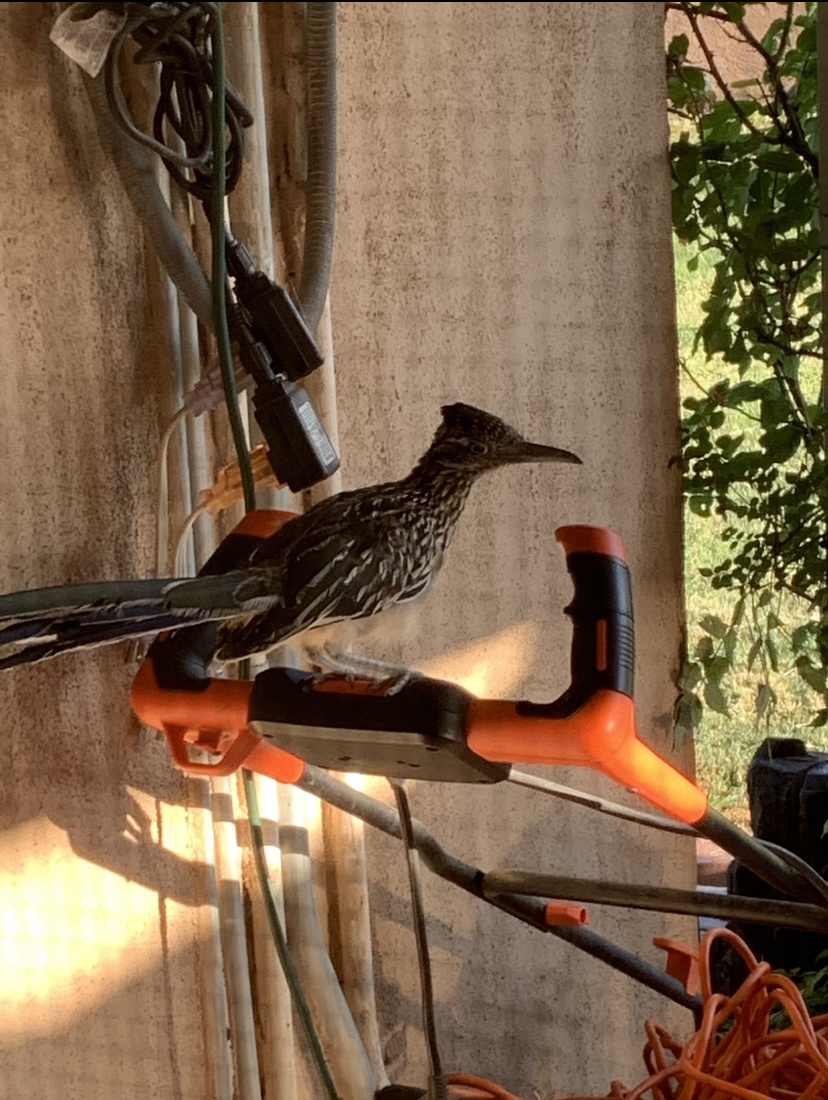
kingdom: Animalia
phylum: Chordata
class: Aves
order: Cuculiformes
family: Cuculidae
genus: Geococcyx
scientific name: Geococcyx californianus
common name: Greater roadrunner
